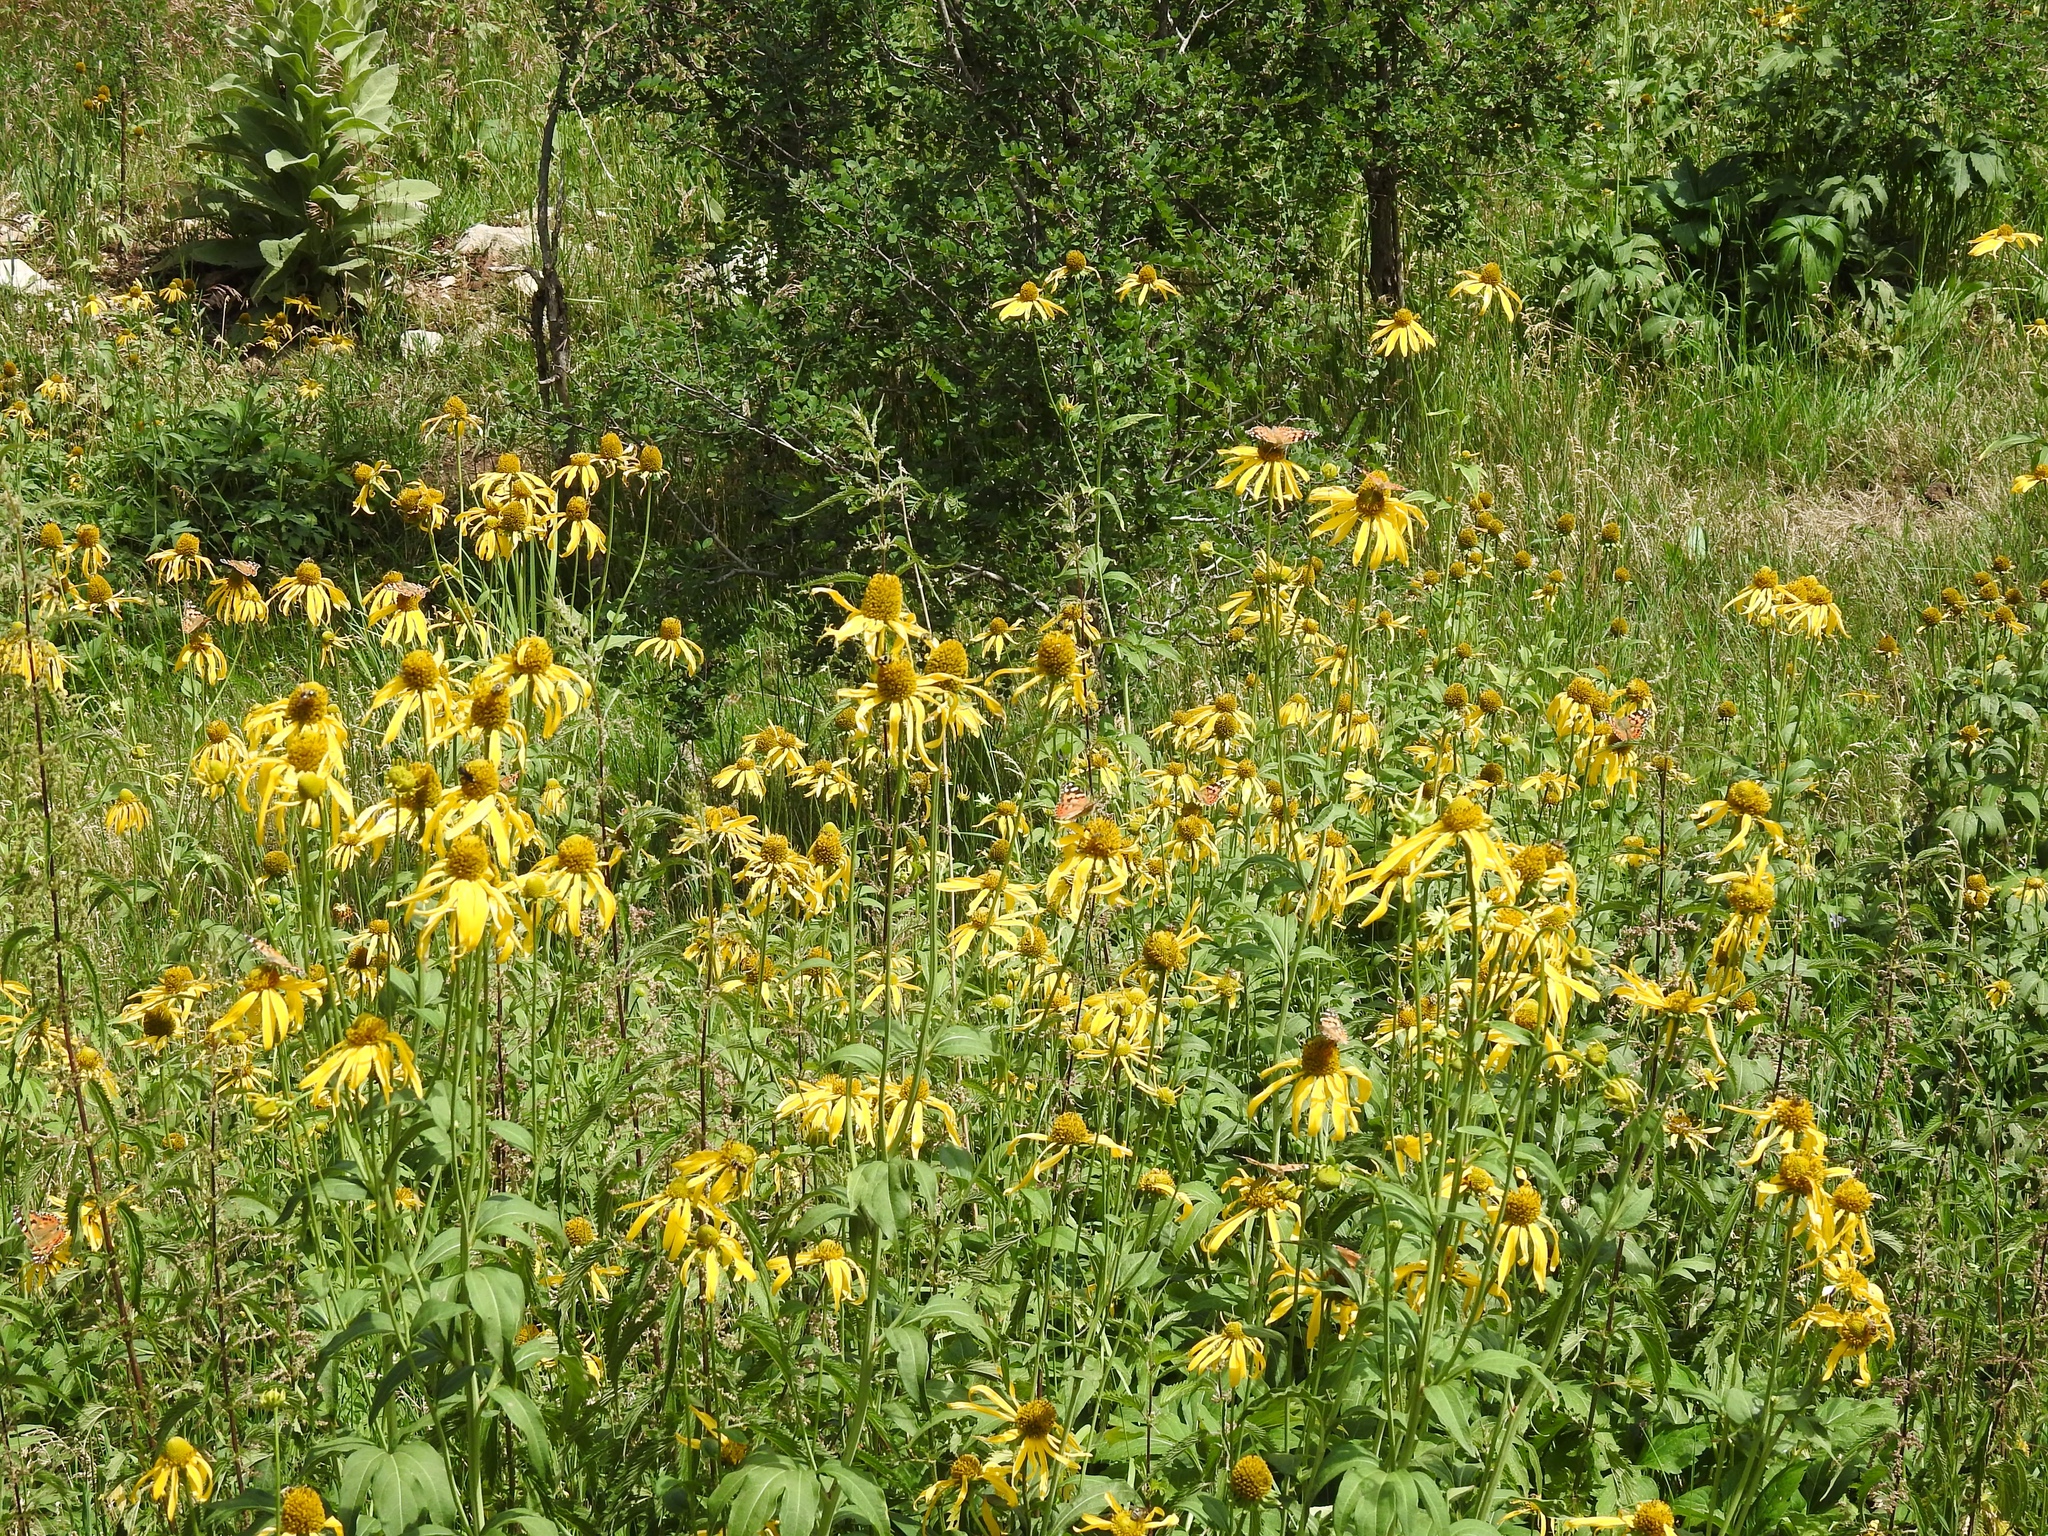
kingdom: Animalia
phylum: Arthropoda
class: Insecta
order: Lepidoptera
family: Nymphalidae
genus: Vanessa
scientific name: Vanessa cardui
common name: Painted lady
